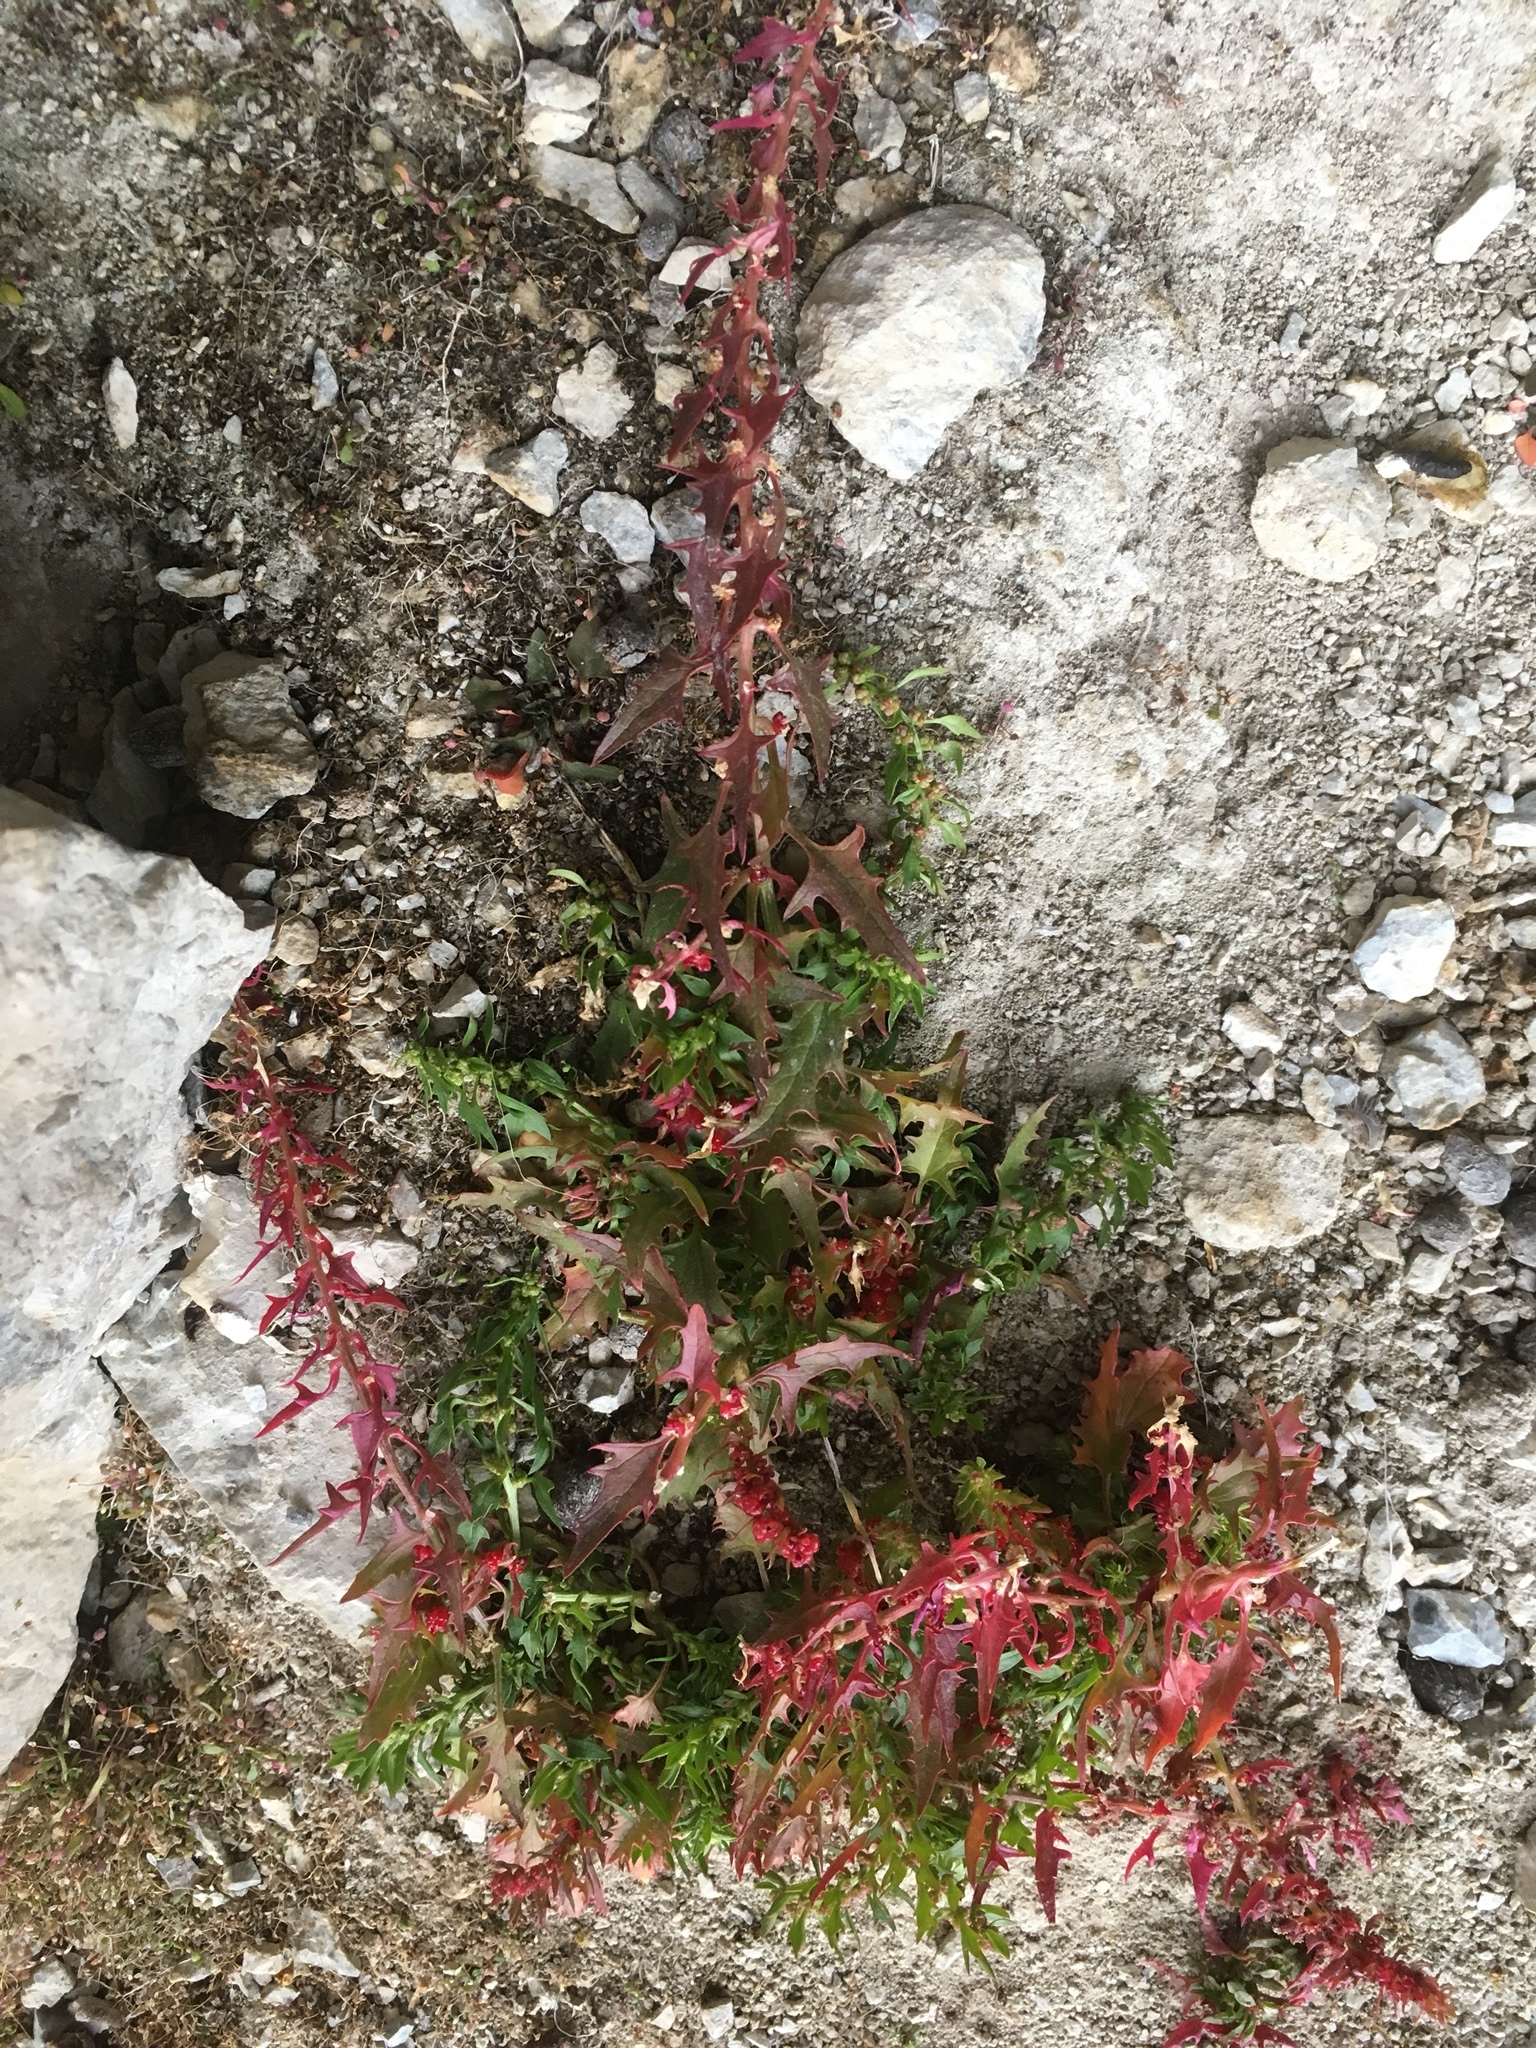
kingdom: Plantae
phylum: Tracheophyta
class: Magnoliopsida
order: Caryophyllales
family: Amaranthaceae
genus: Blitum
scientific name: Blitum virgatum
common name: Strawberry goosefoot
